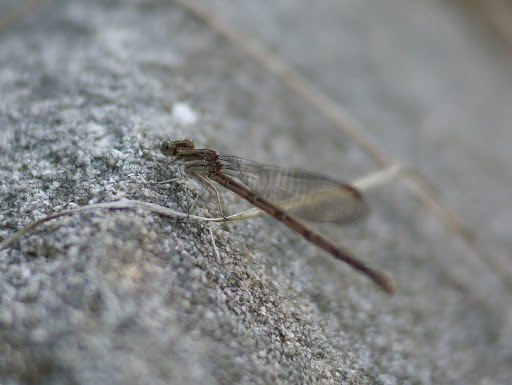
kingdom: Animalia
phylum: Arthropoda
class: Insecta
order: Odonata
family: Coenagrionidae
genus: Argia
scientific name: Argia fumipennis
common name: Variable dancer
